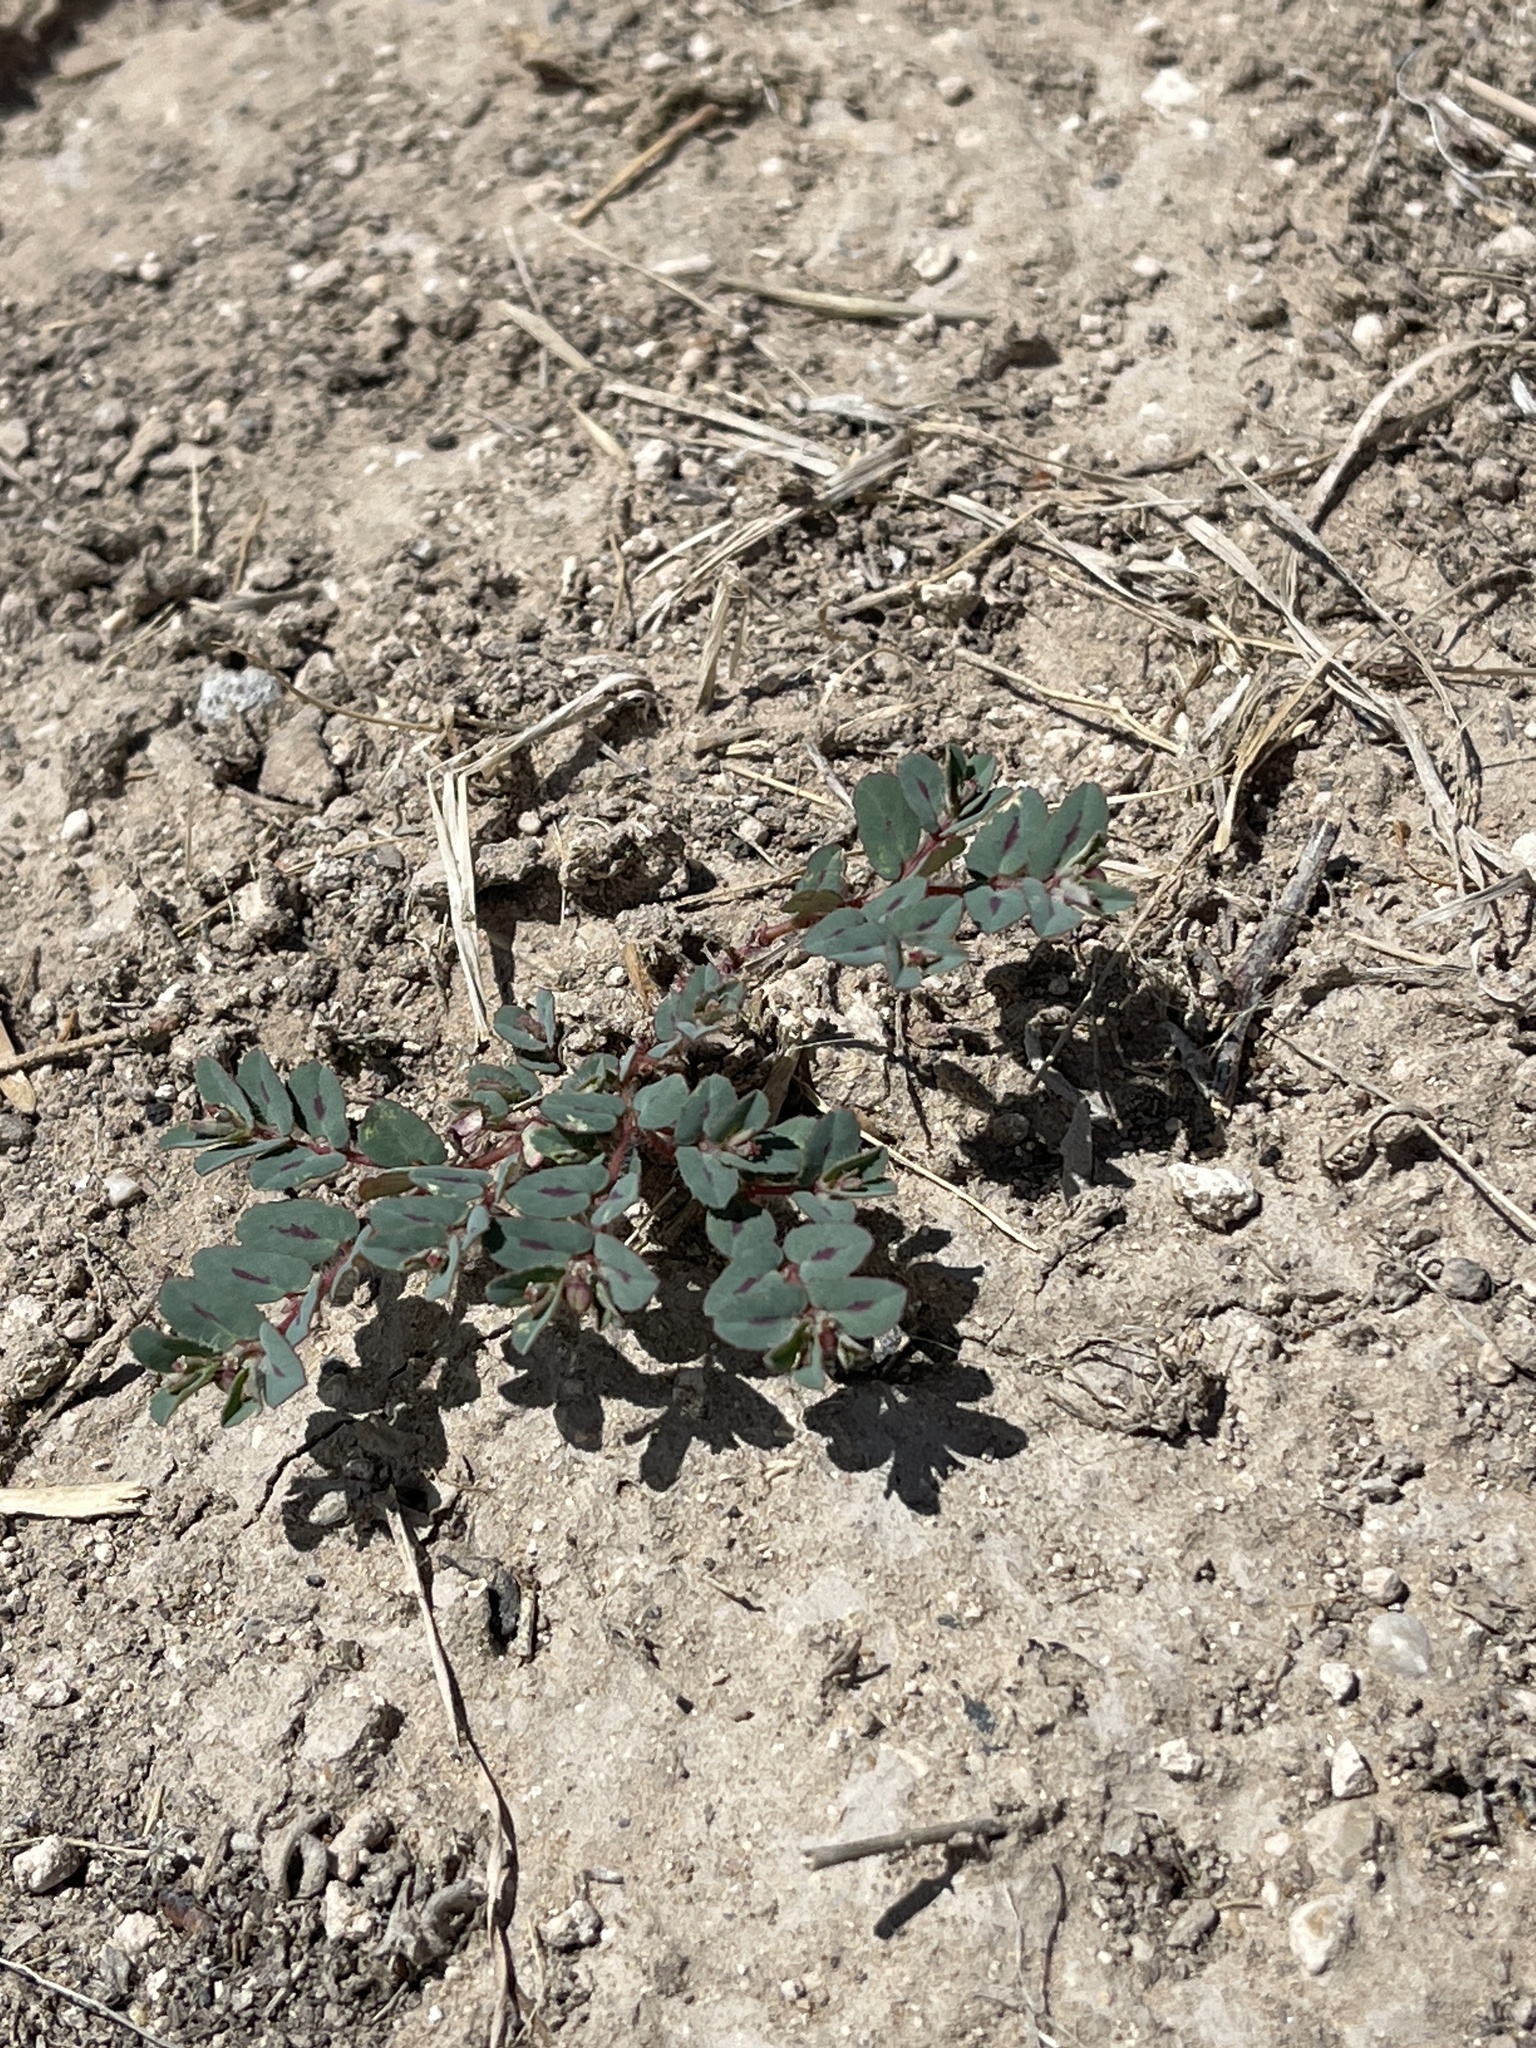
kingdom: Plantae
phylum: Tracheophyta
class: Magnoliopsida
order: Malpighiales
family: Euphorbiaceae
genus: Euphorbia
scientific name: Euphorbia serrula
